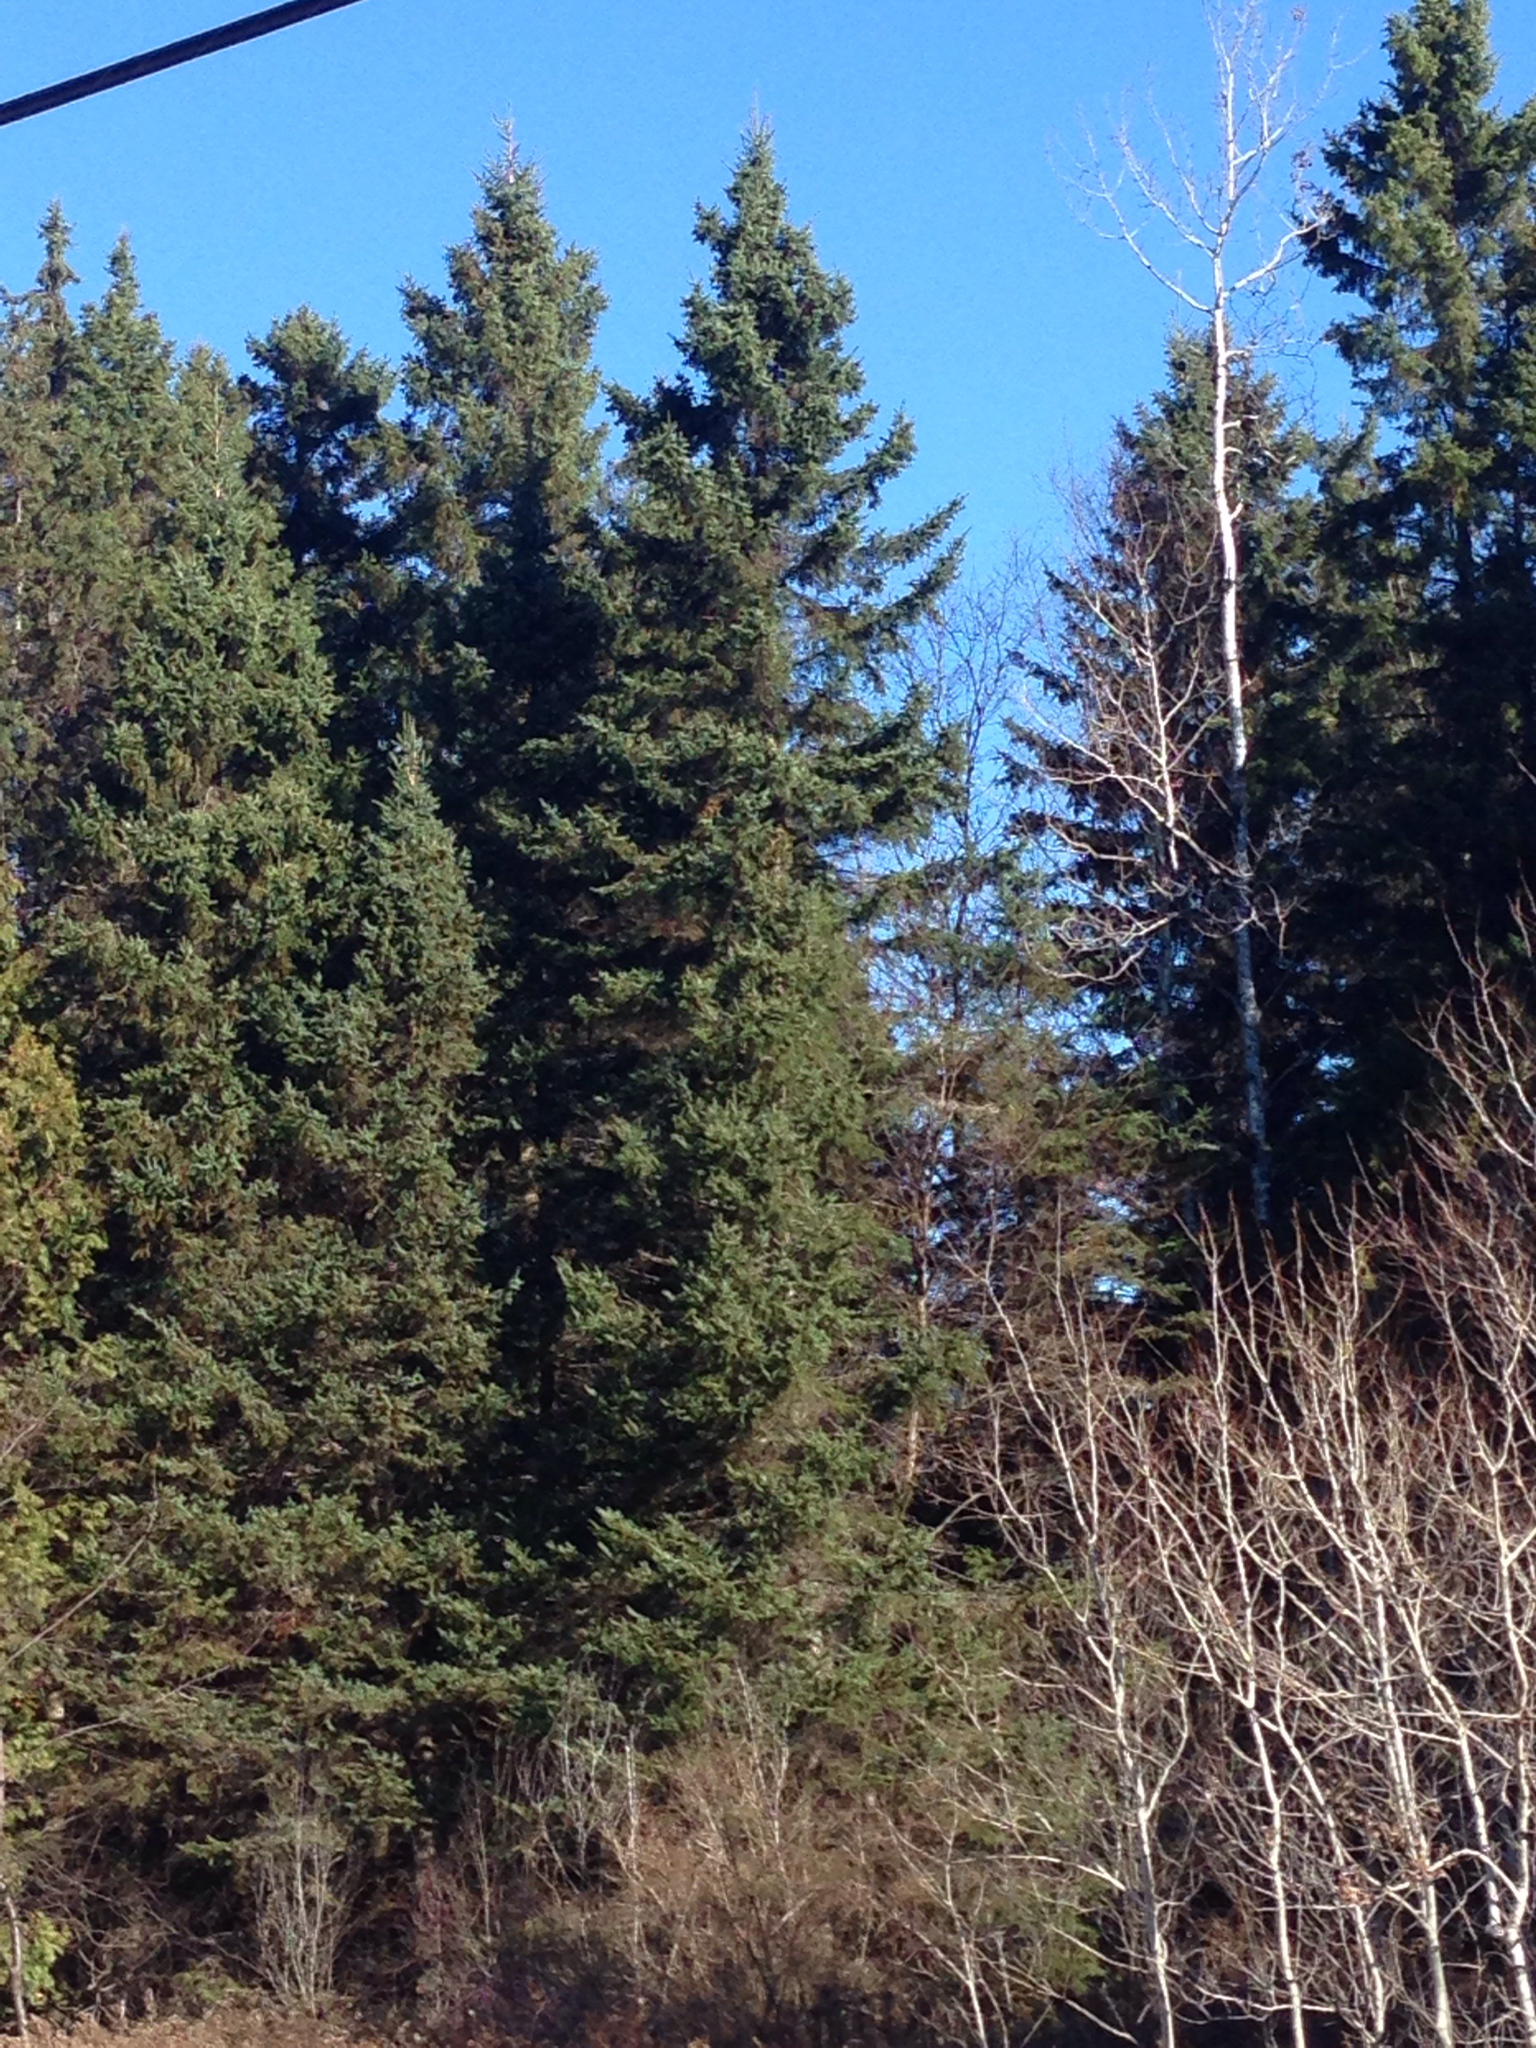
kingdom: Plantae
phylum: Tracheophyta
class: Pinopsida
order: Pinales
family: Pinaceae
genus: Picea
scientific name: Picea rubens
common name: Red spruce
